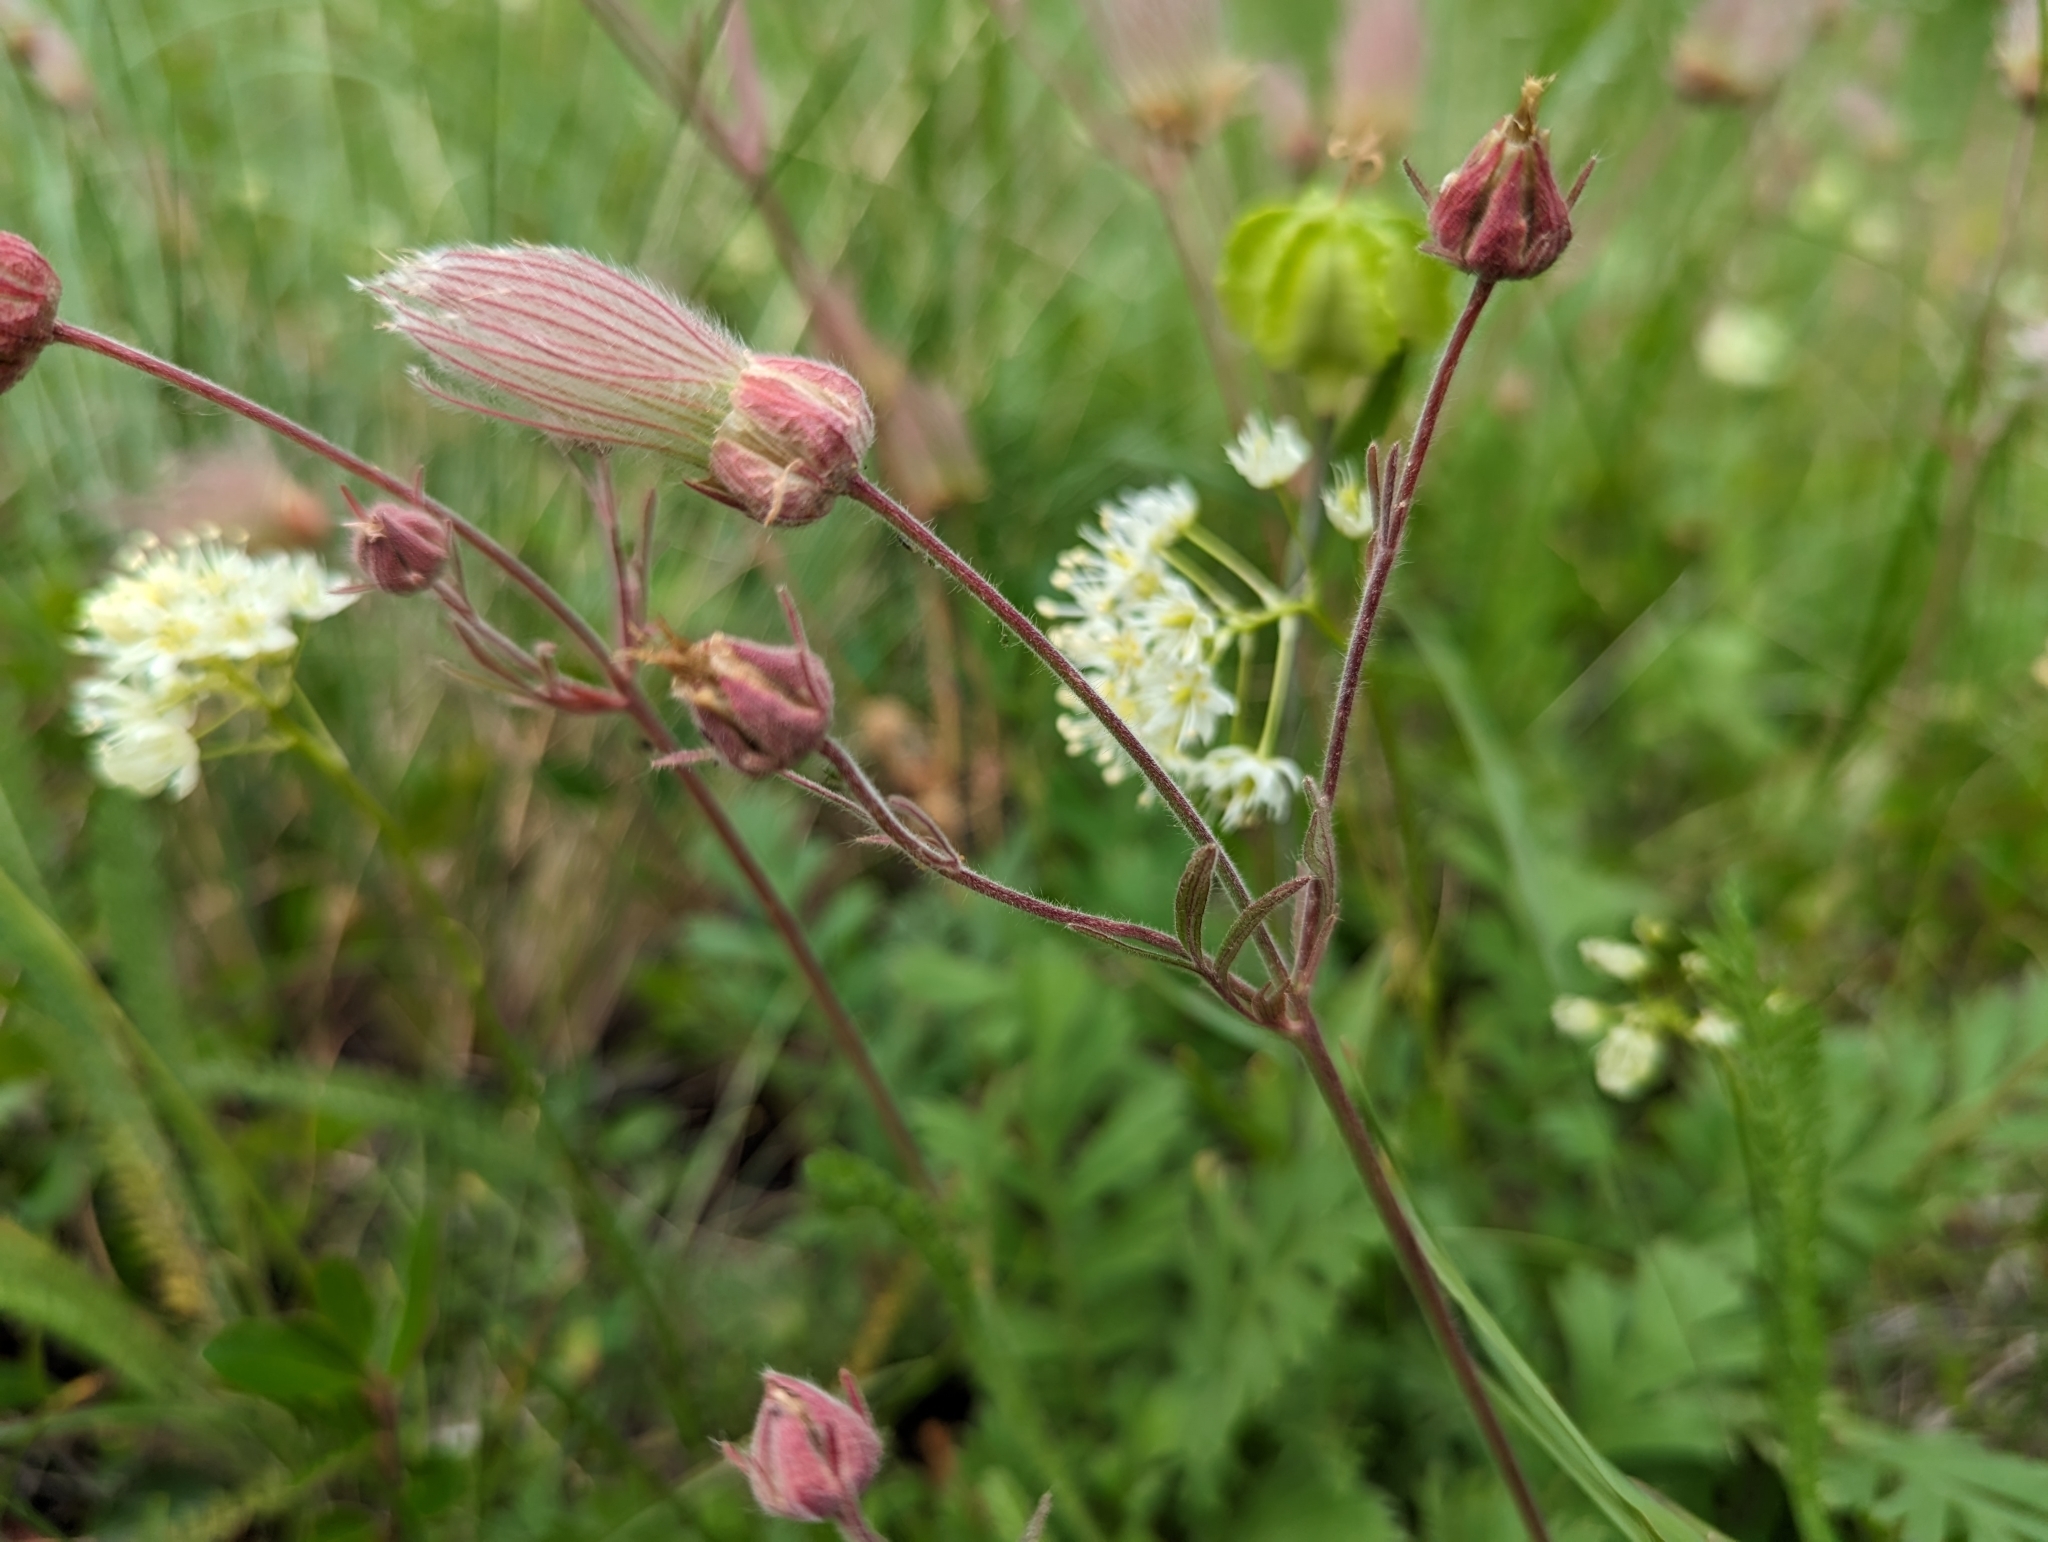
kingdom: Plantae
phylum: Tracheophyta
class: Magnoliopsida
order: Rosales
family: Rosaceae
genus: Geum
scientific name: Geum triflorum
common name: Old man's whiskers
